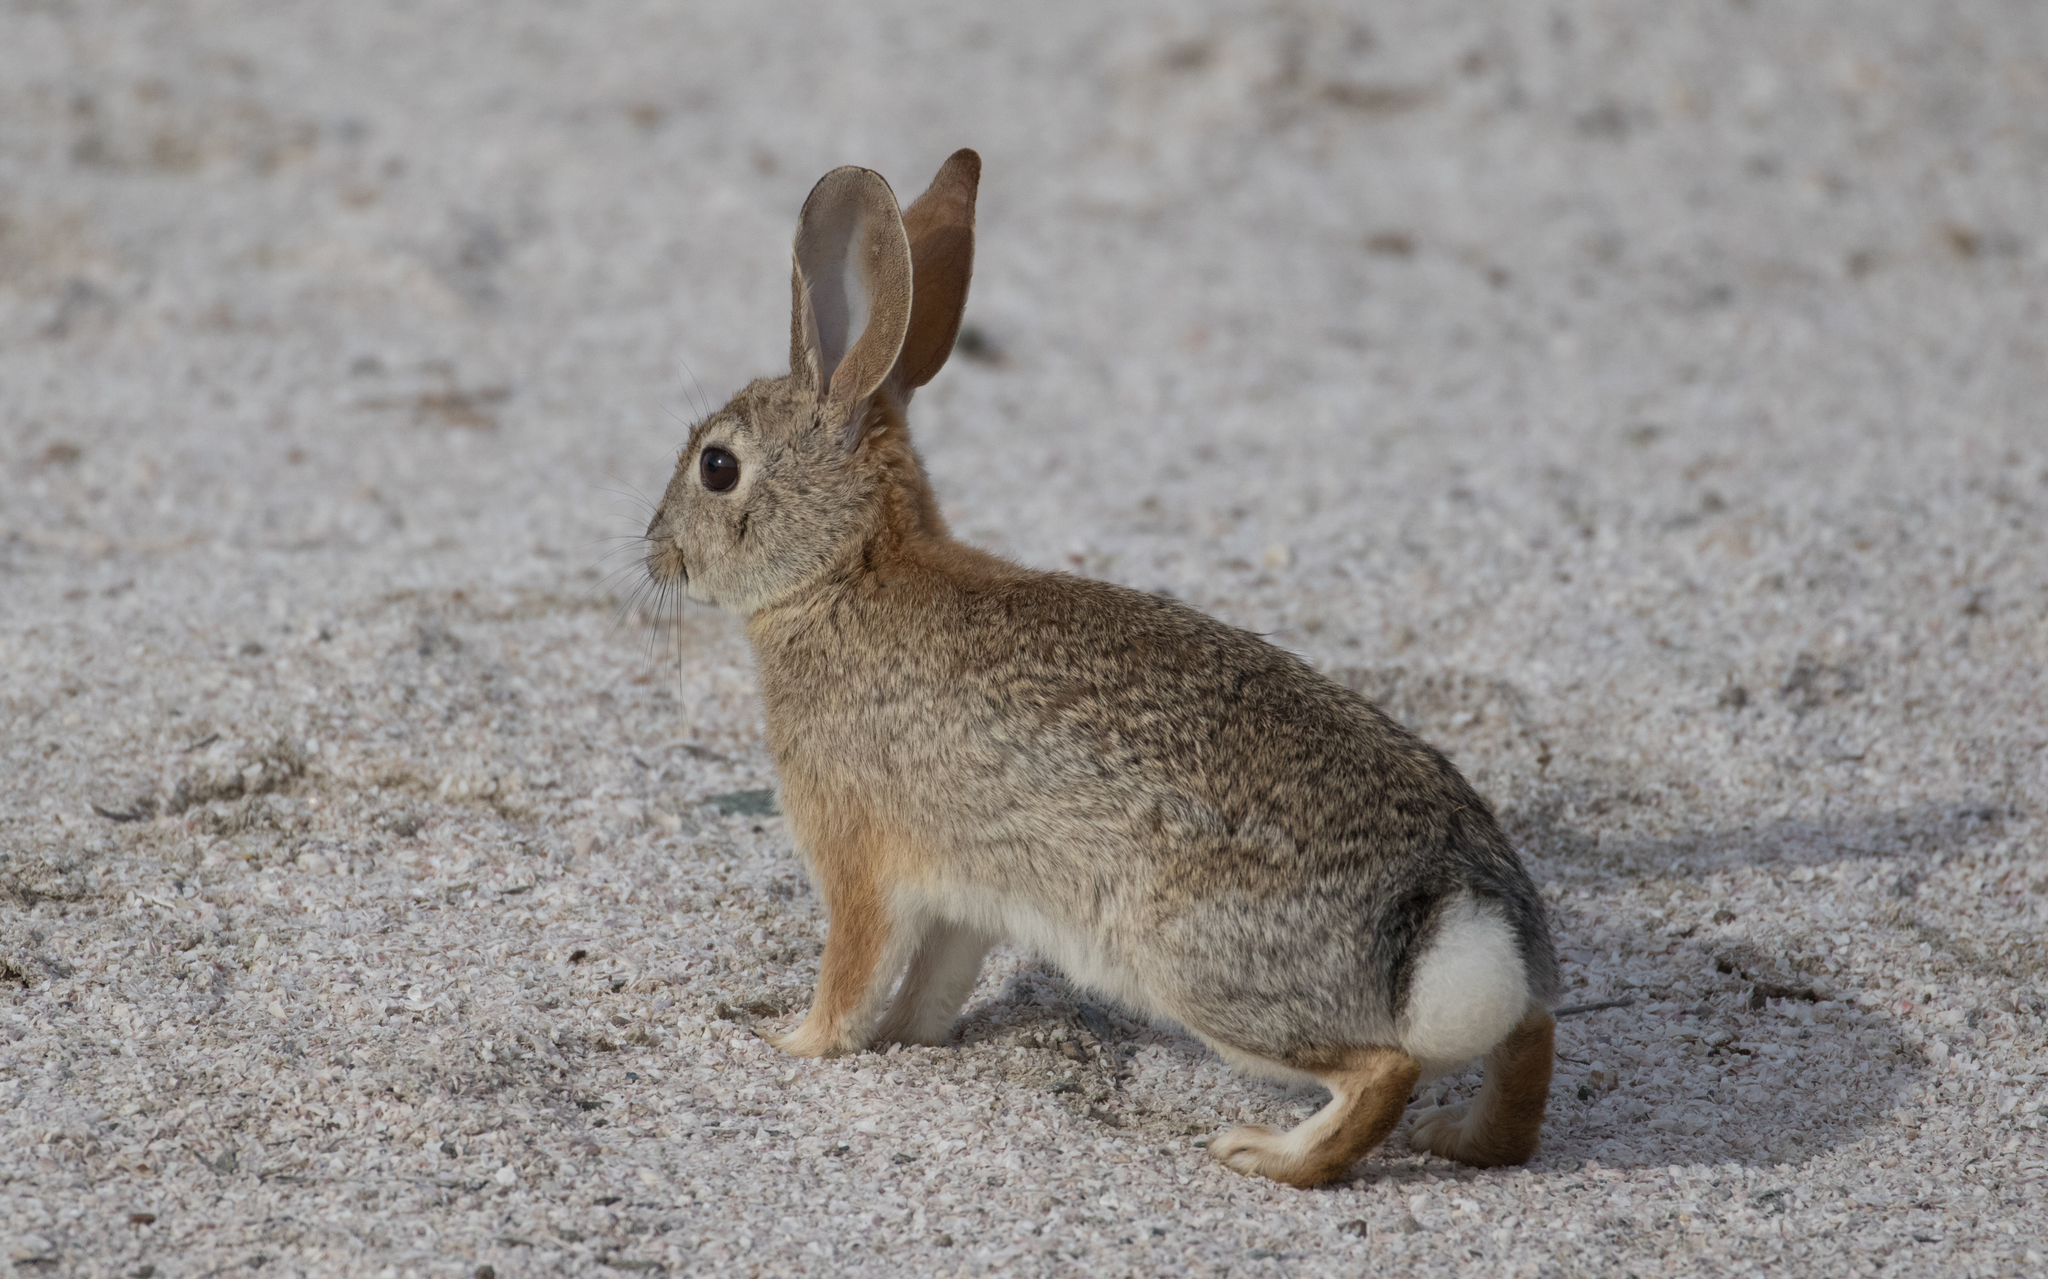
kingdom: Animalia
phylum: Chordata
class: Mammalia
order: Lagomorpha
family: Leporidae
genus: Sylvilagus
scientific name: Sylvilagus audubonii
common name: Desert cottontail
